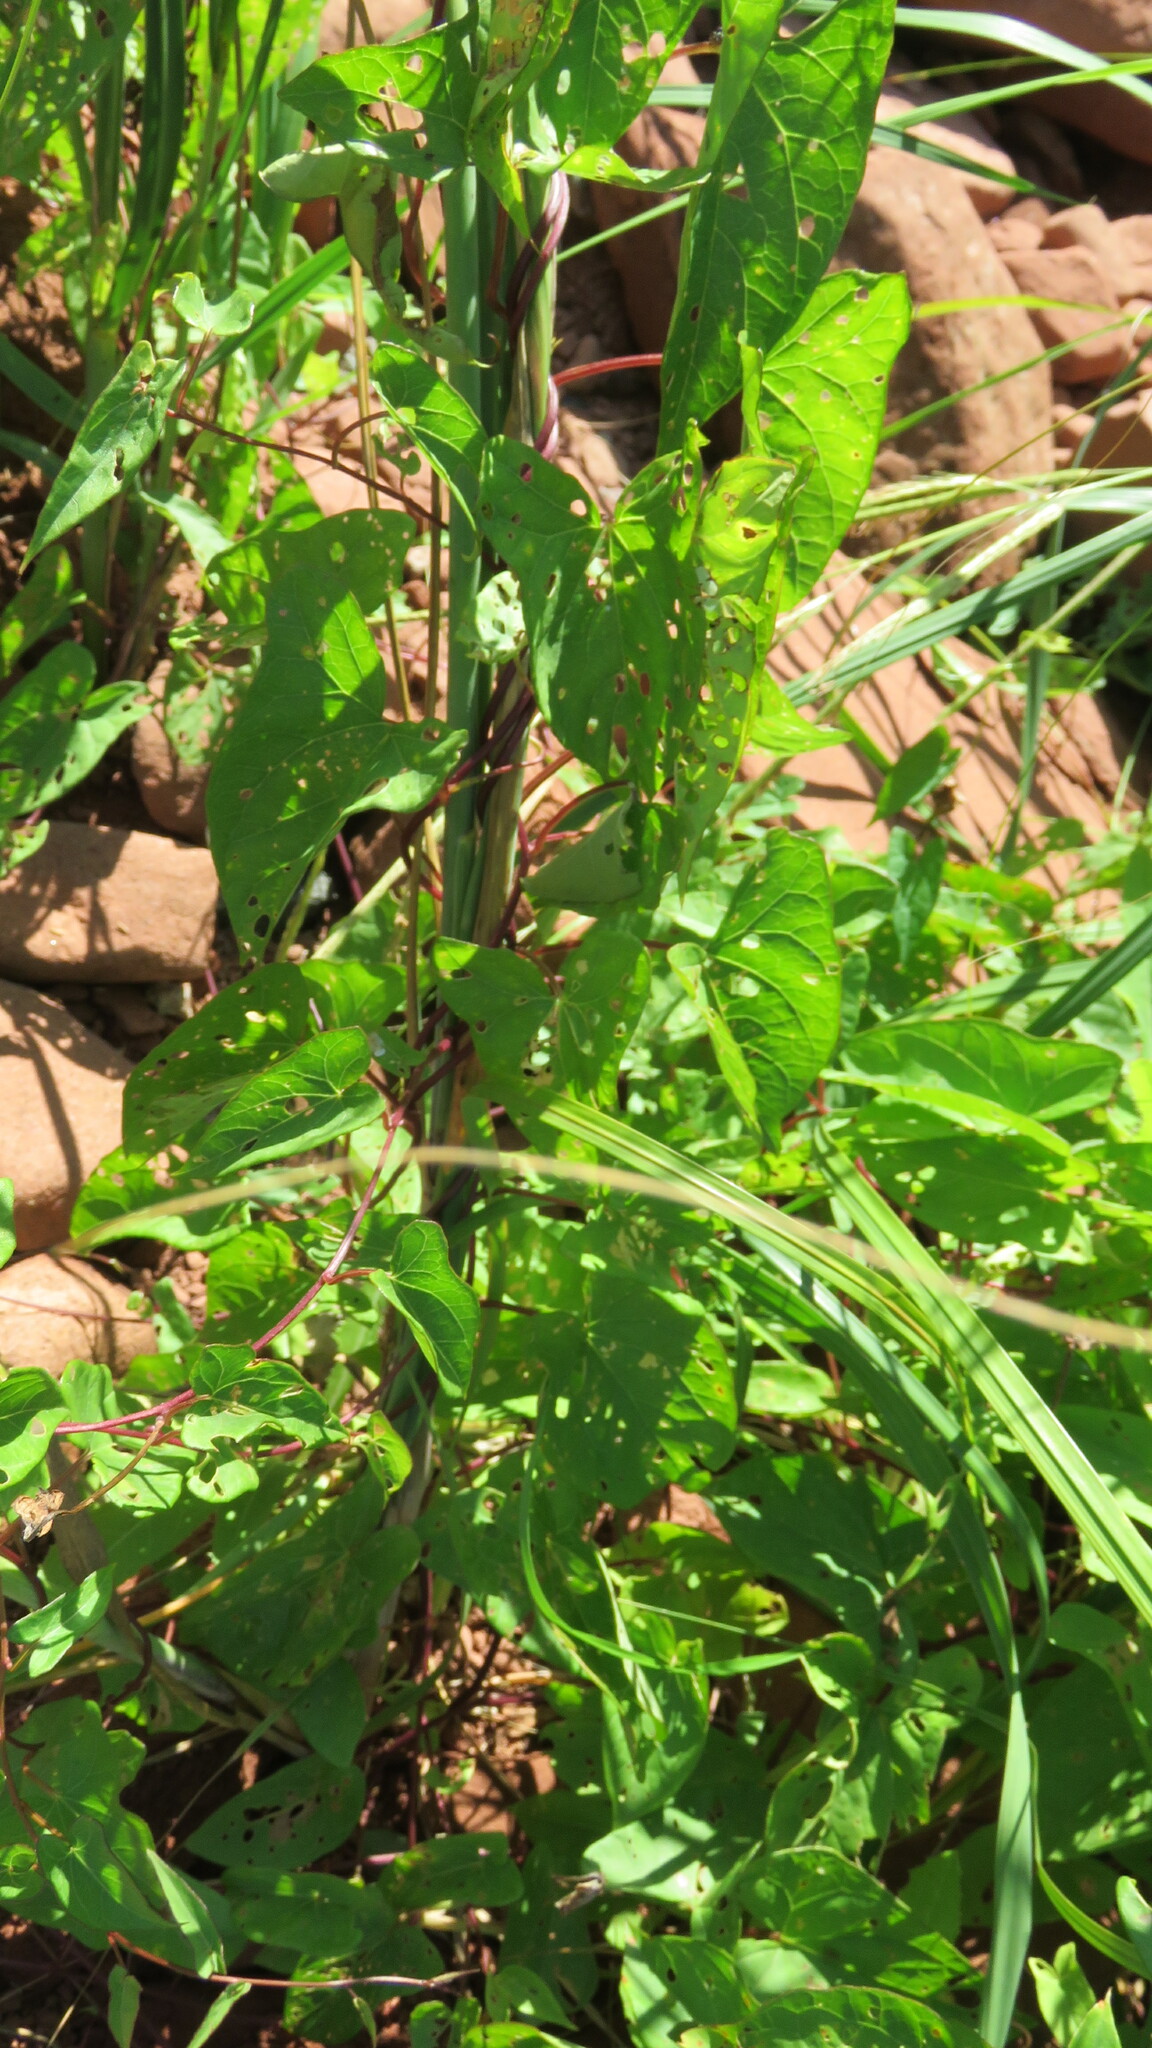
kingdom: Plantae
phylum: Tracheophyta
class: Magnoliopsida
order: Solanales
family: Convolvulaceae
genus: Calystegia
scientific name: Calystegia sepium
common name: Hedge bindweed
